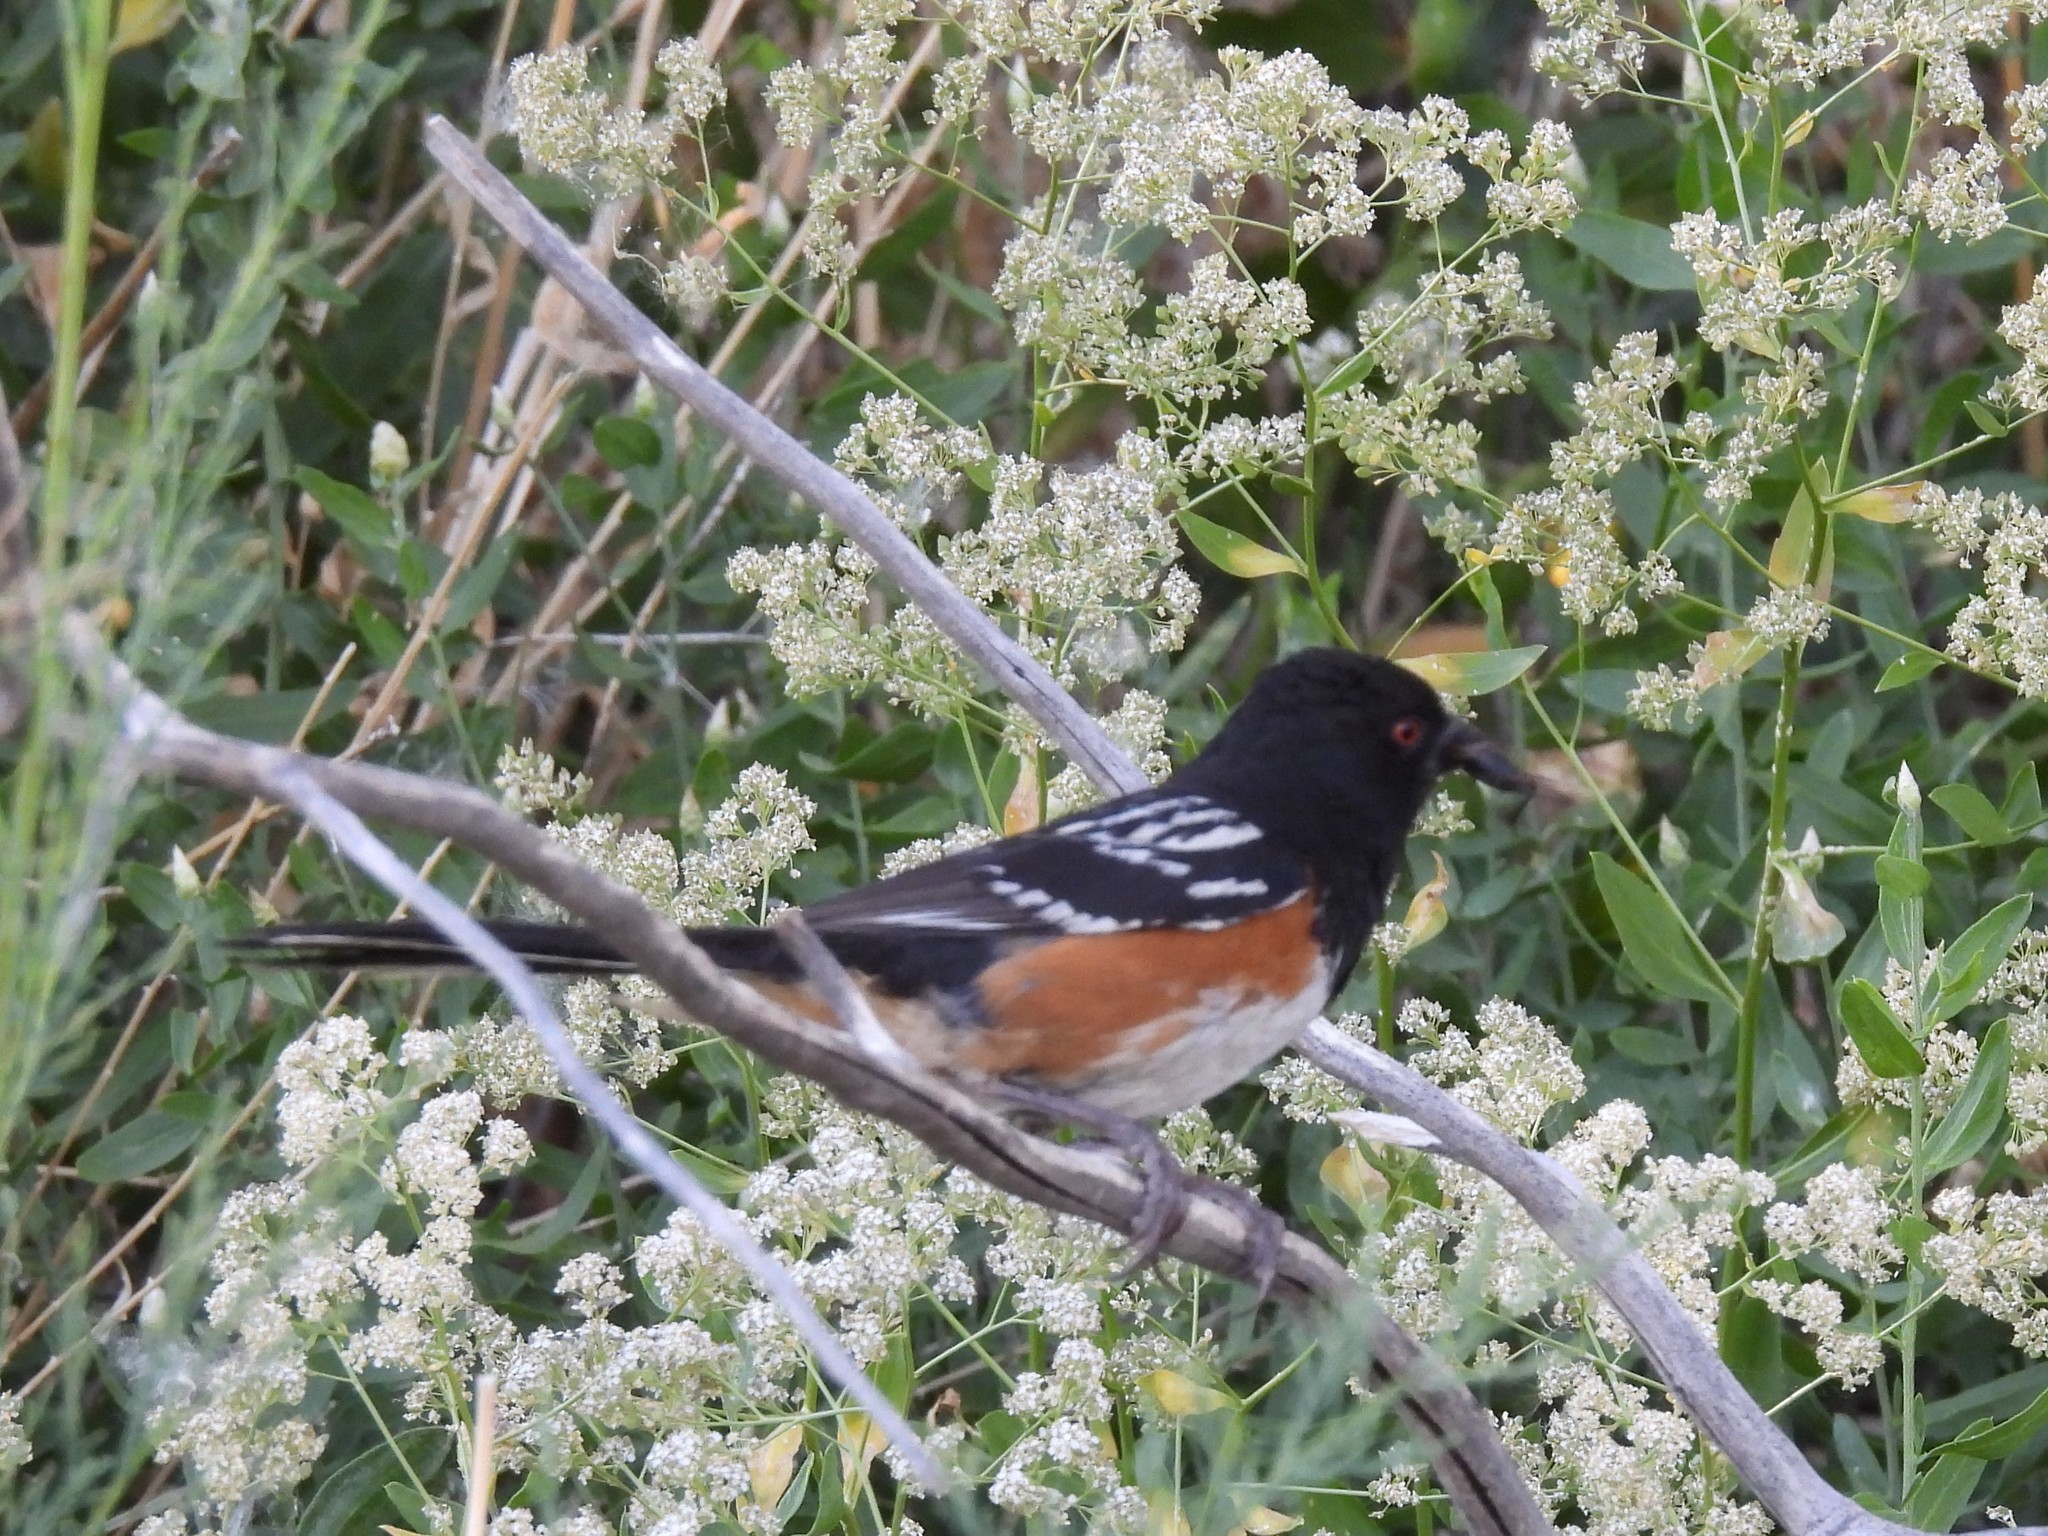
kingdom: Animalia
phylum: Chordata
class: Aves
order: Passeriformes
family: Passerellidae
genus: Pipilo
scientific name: Pipilo maculatus
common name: Spotted towhee
